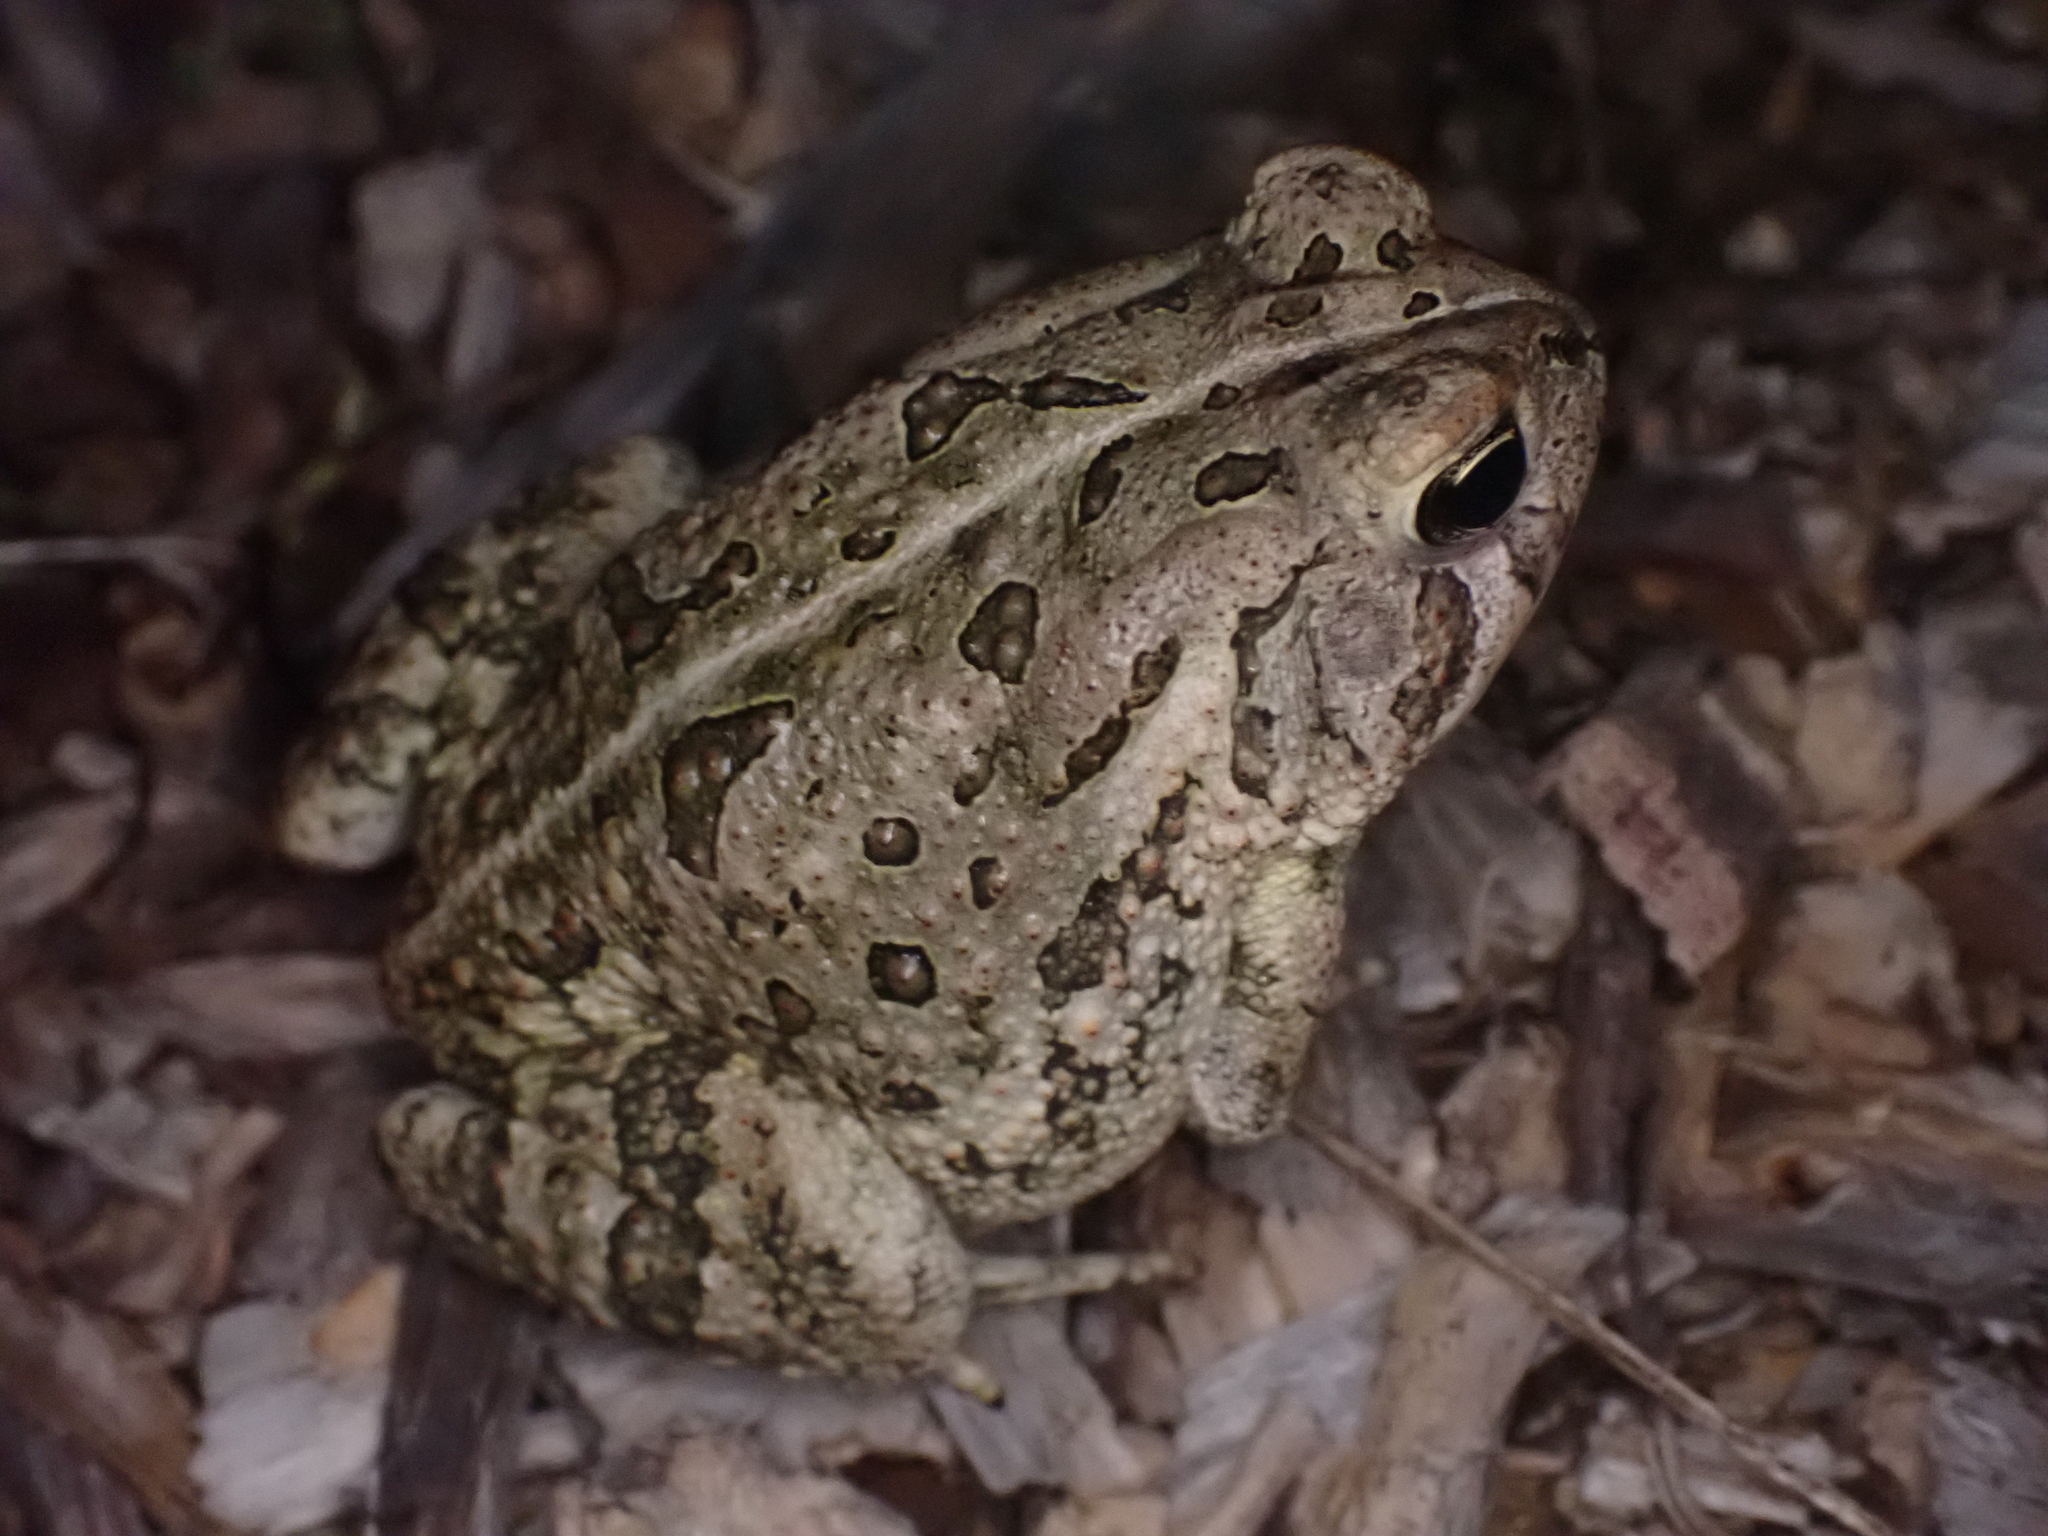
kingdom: Animalia
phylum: Chordata
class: Amphibia
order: Anura
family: Bufonidae
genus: Anaxyrus
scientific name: Anaxyrus fowleri
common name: Fowler's toad
